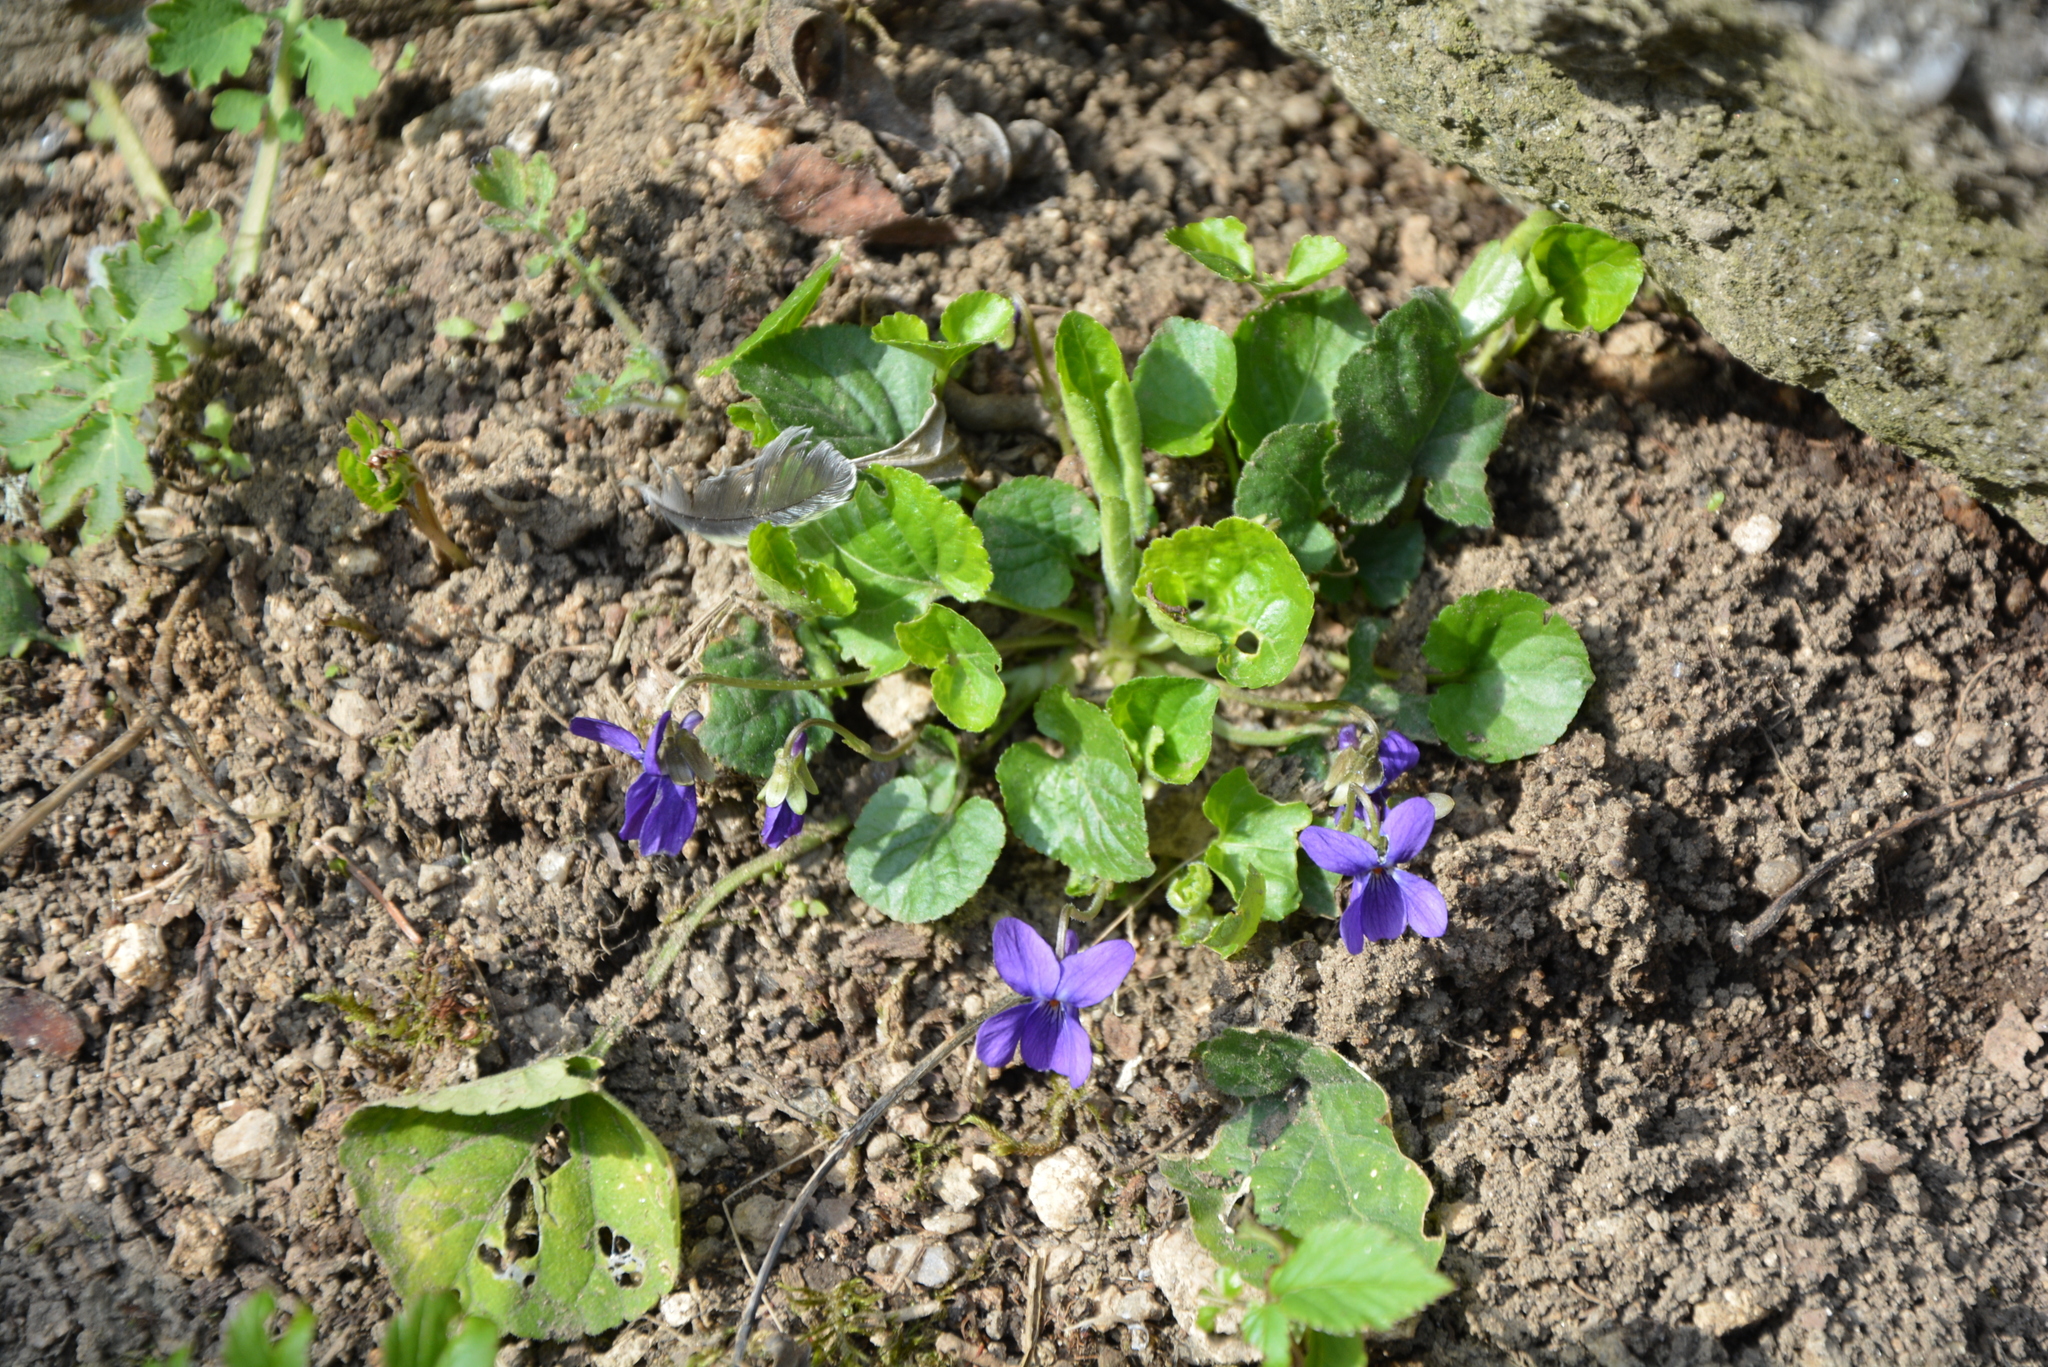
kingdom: Plantae
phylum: Tracheophyta
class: Magnoliopsida
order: Malpighiales
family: Violaceae
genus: Viola
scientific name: Viola odorata
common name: Sweet violet
